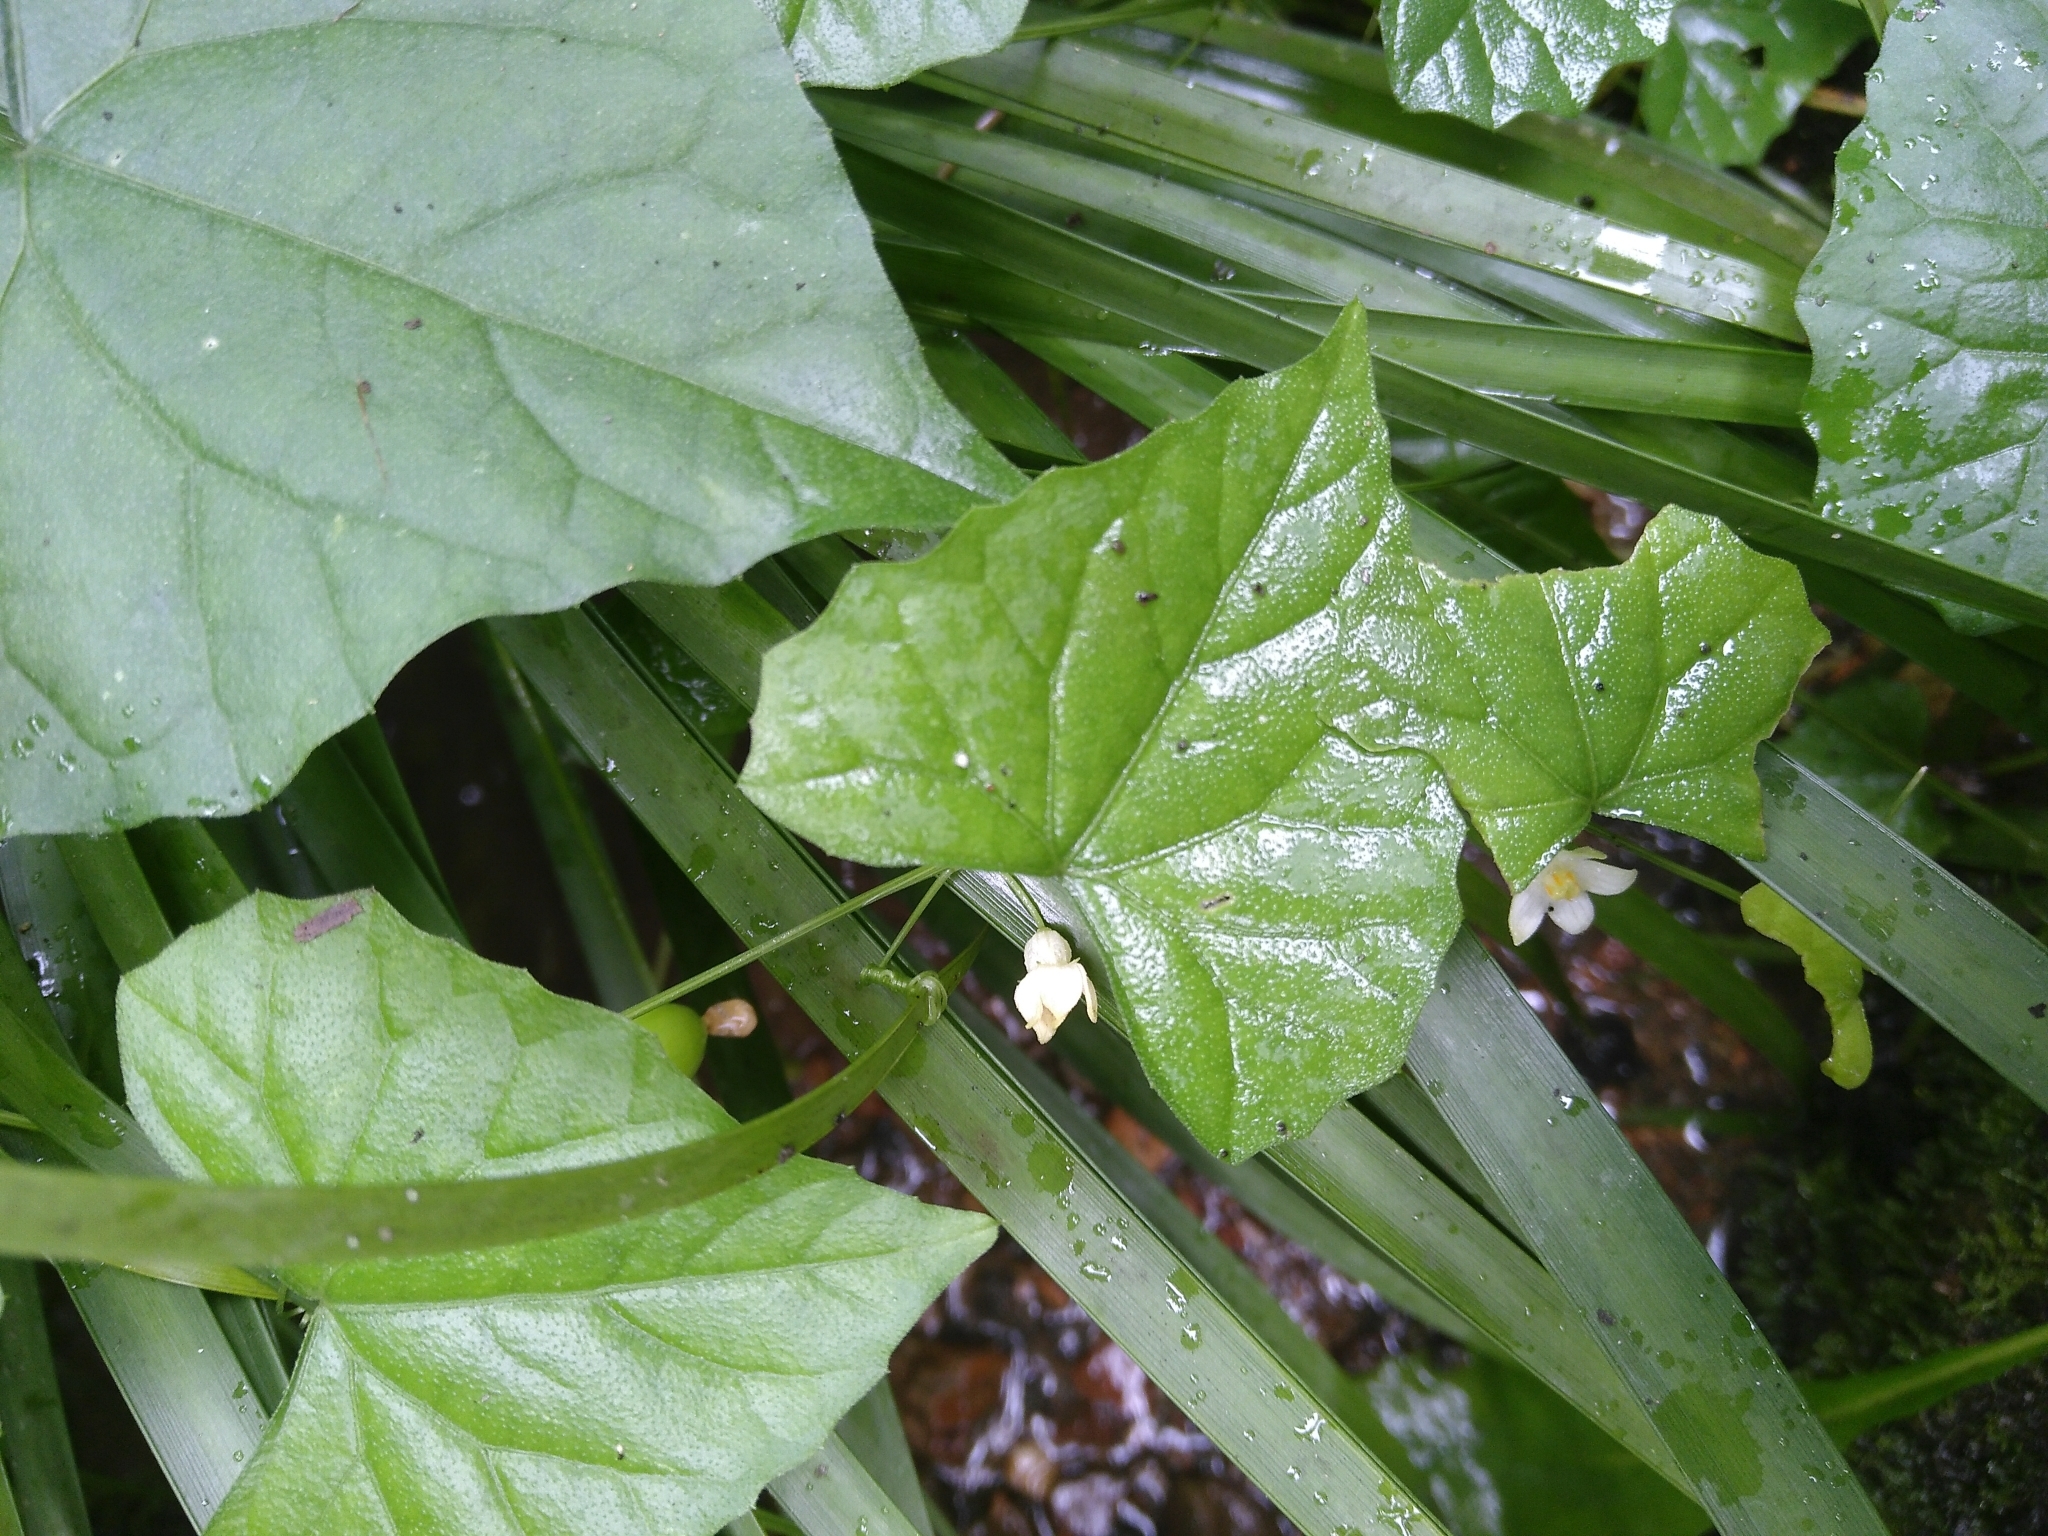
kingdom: Plantae
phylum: Tracheophyta
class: Magnoliopsida
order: Cucurbitales
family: Cucurbitaceae
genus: Zehneria
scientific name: Zehneria japonica
